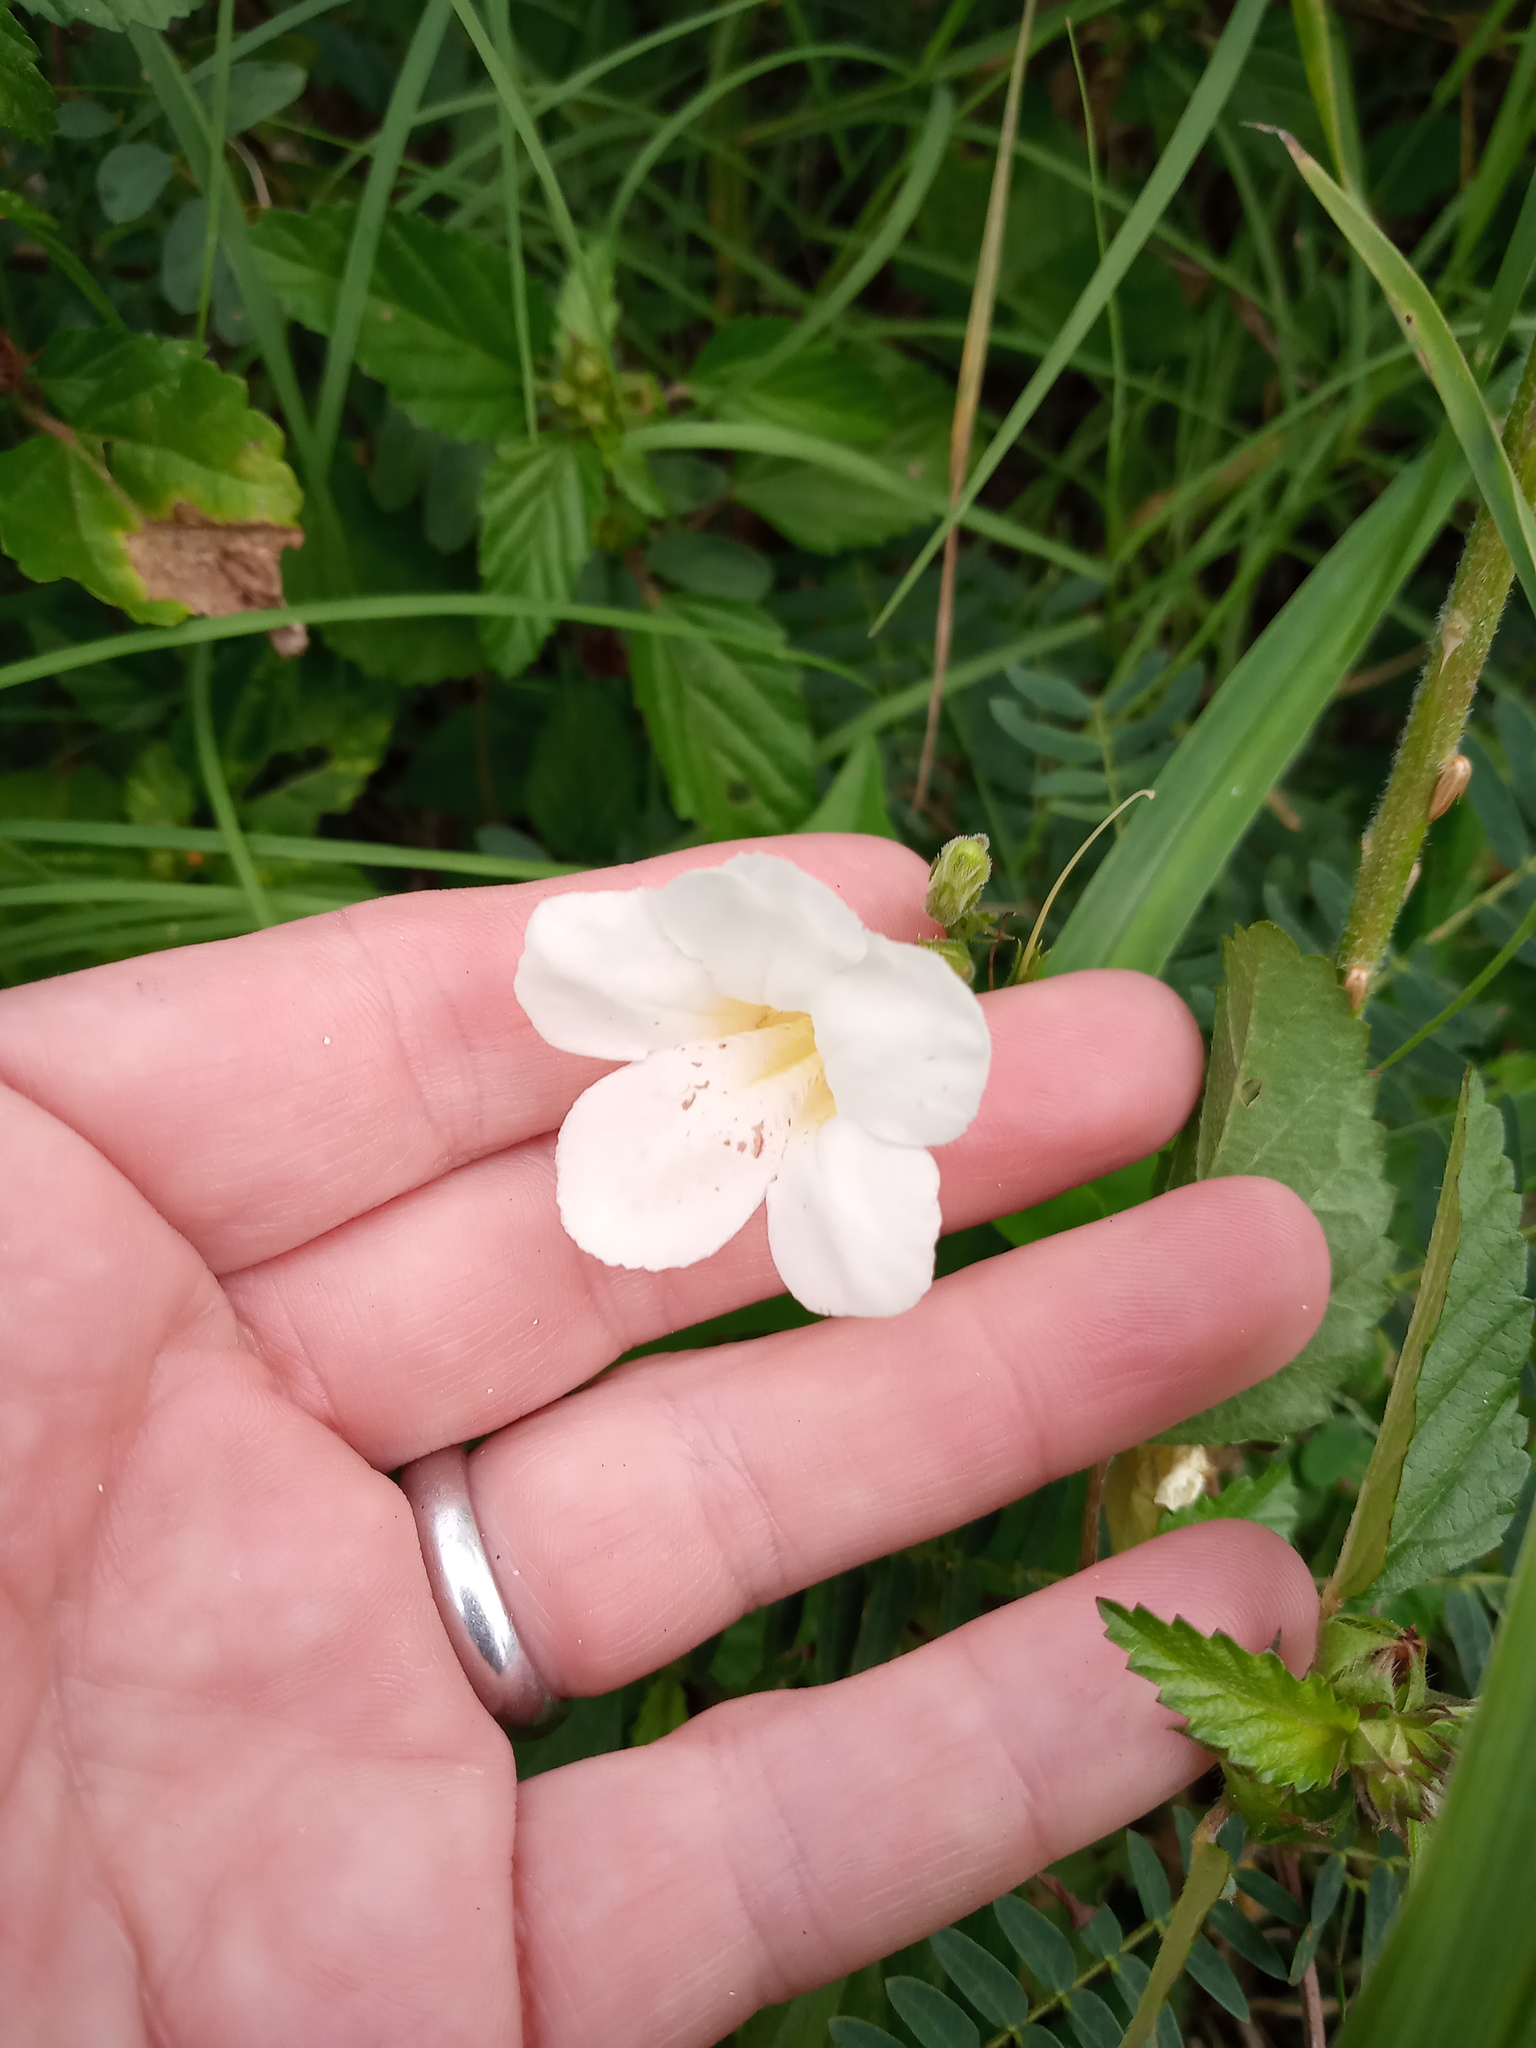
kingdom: Plantae
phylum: Tracheophyta
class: Magnoliopsida
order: Lamiales
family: Acanthaceae
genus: Asystasia
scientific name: Asystasia gangetica
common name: Chinese violet
